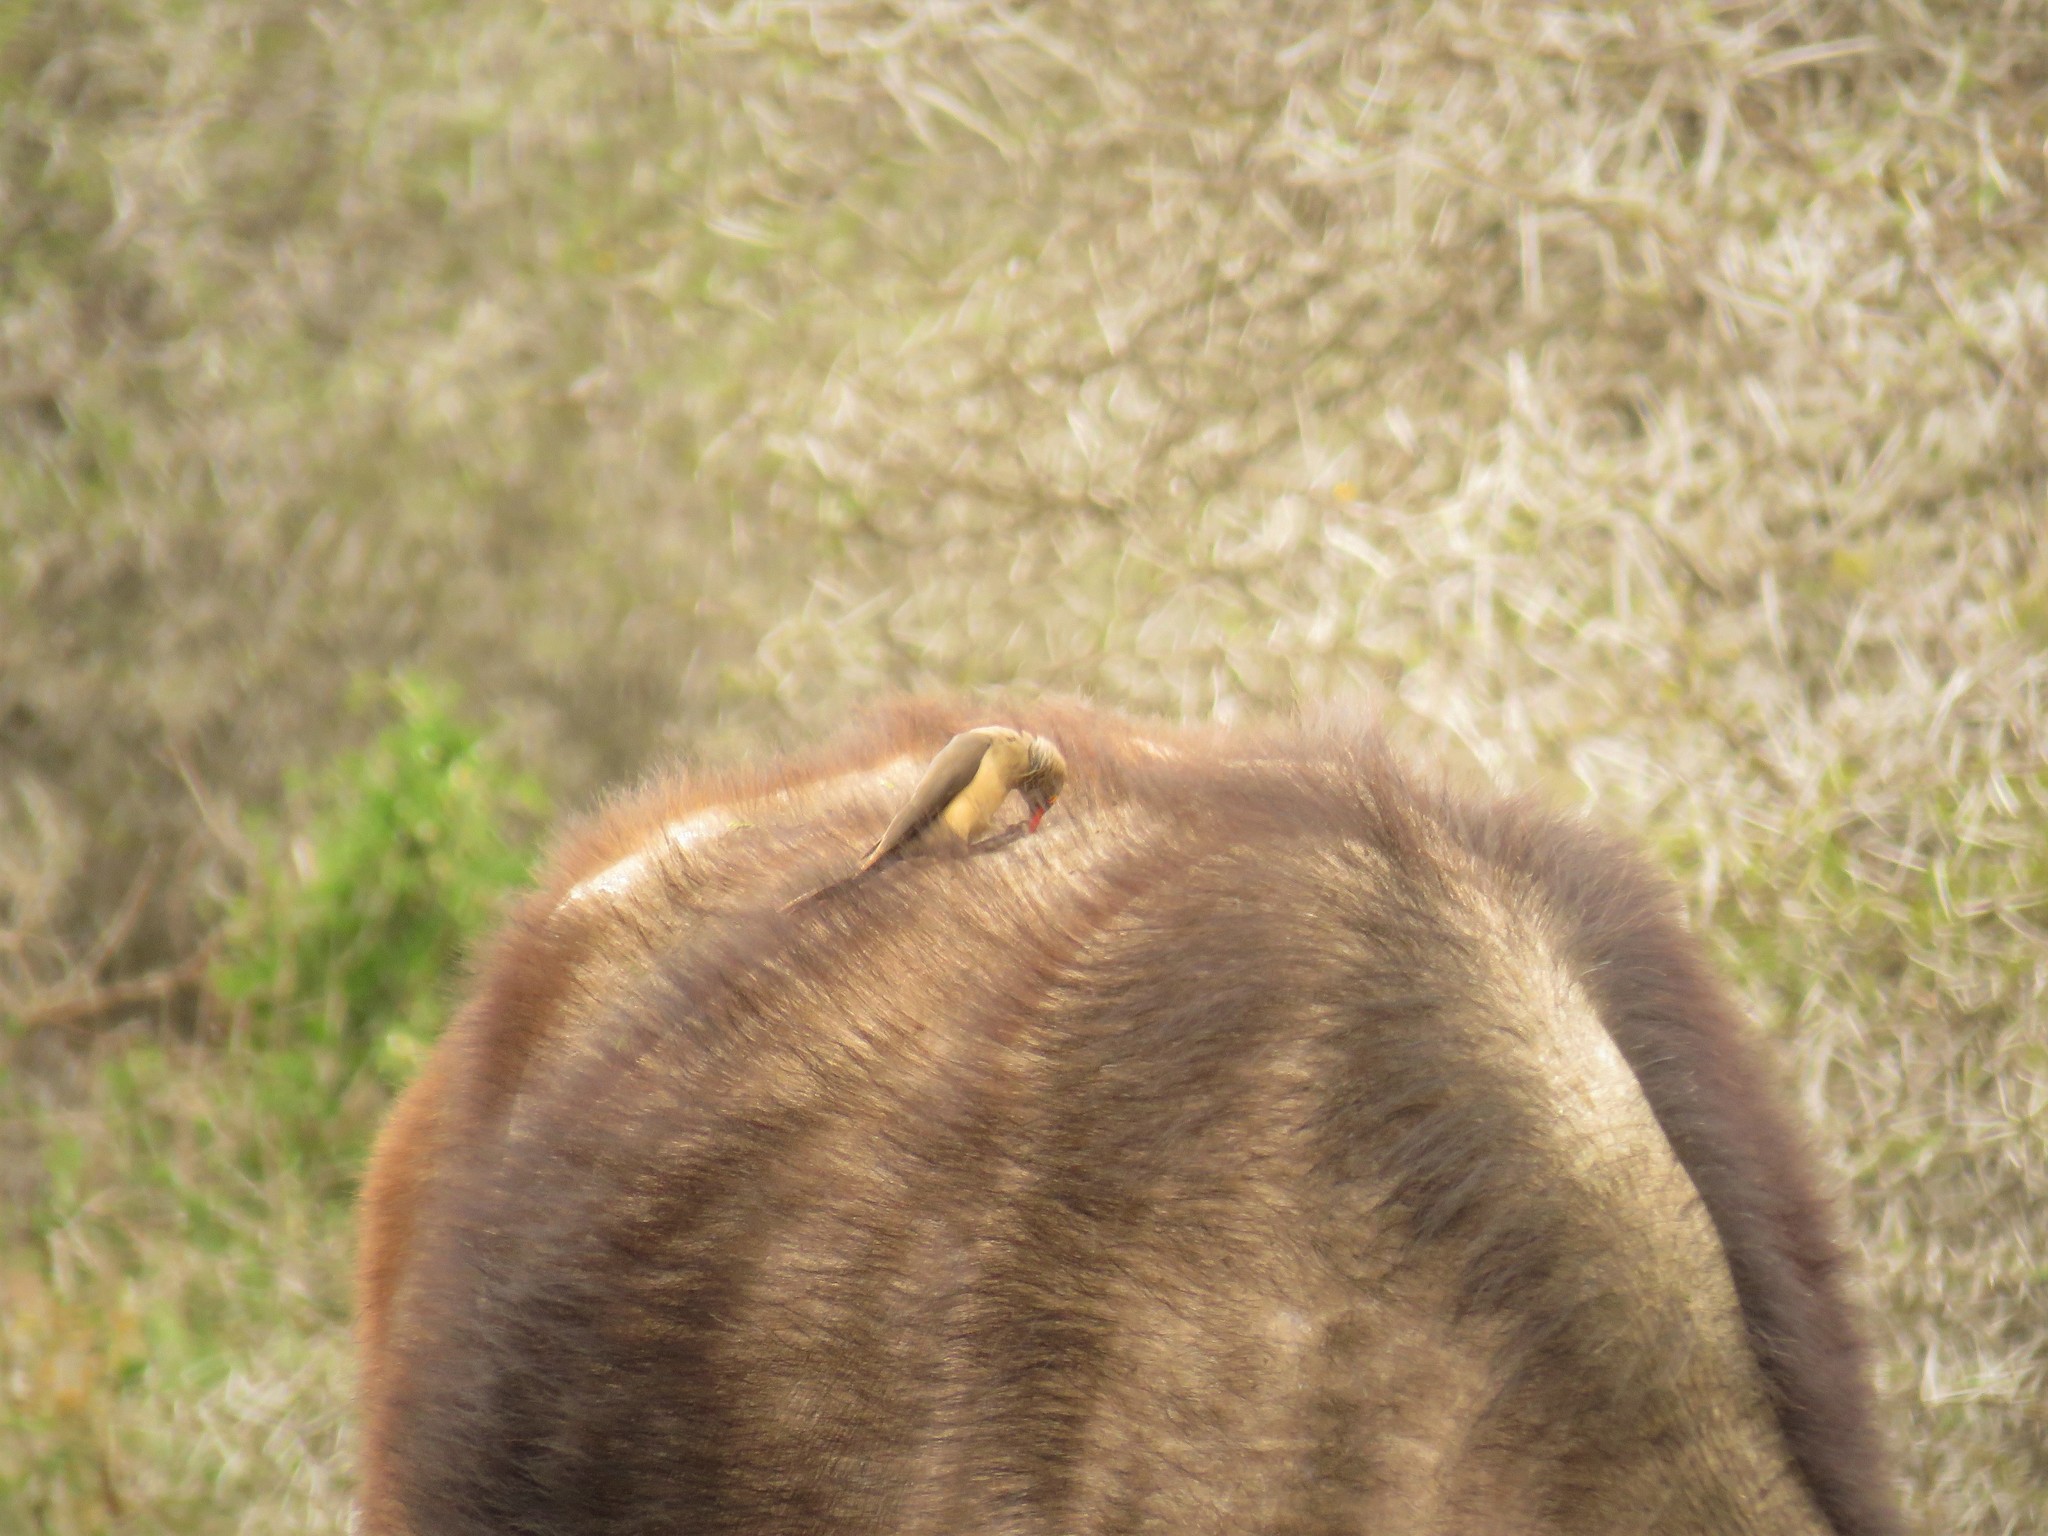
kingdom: Animalia
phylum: Chordata
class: Aves
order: Passeriformes
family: Buphagidae
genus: Buphagus
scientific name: Buphagus erythrorhynchus
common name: Red-billed oxpecker
